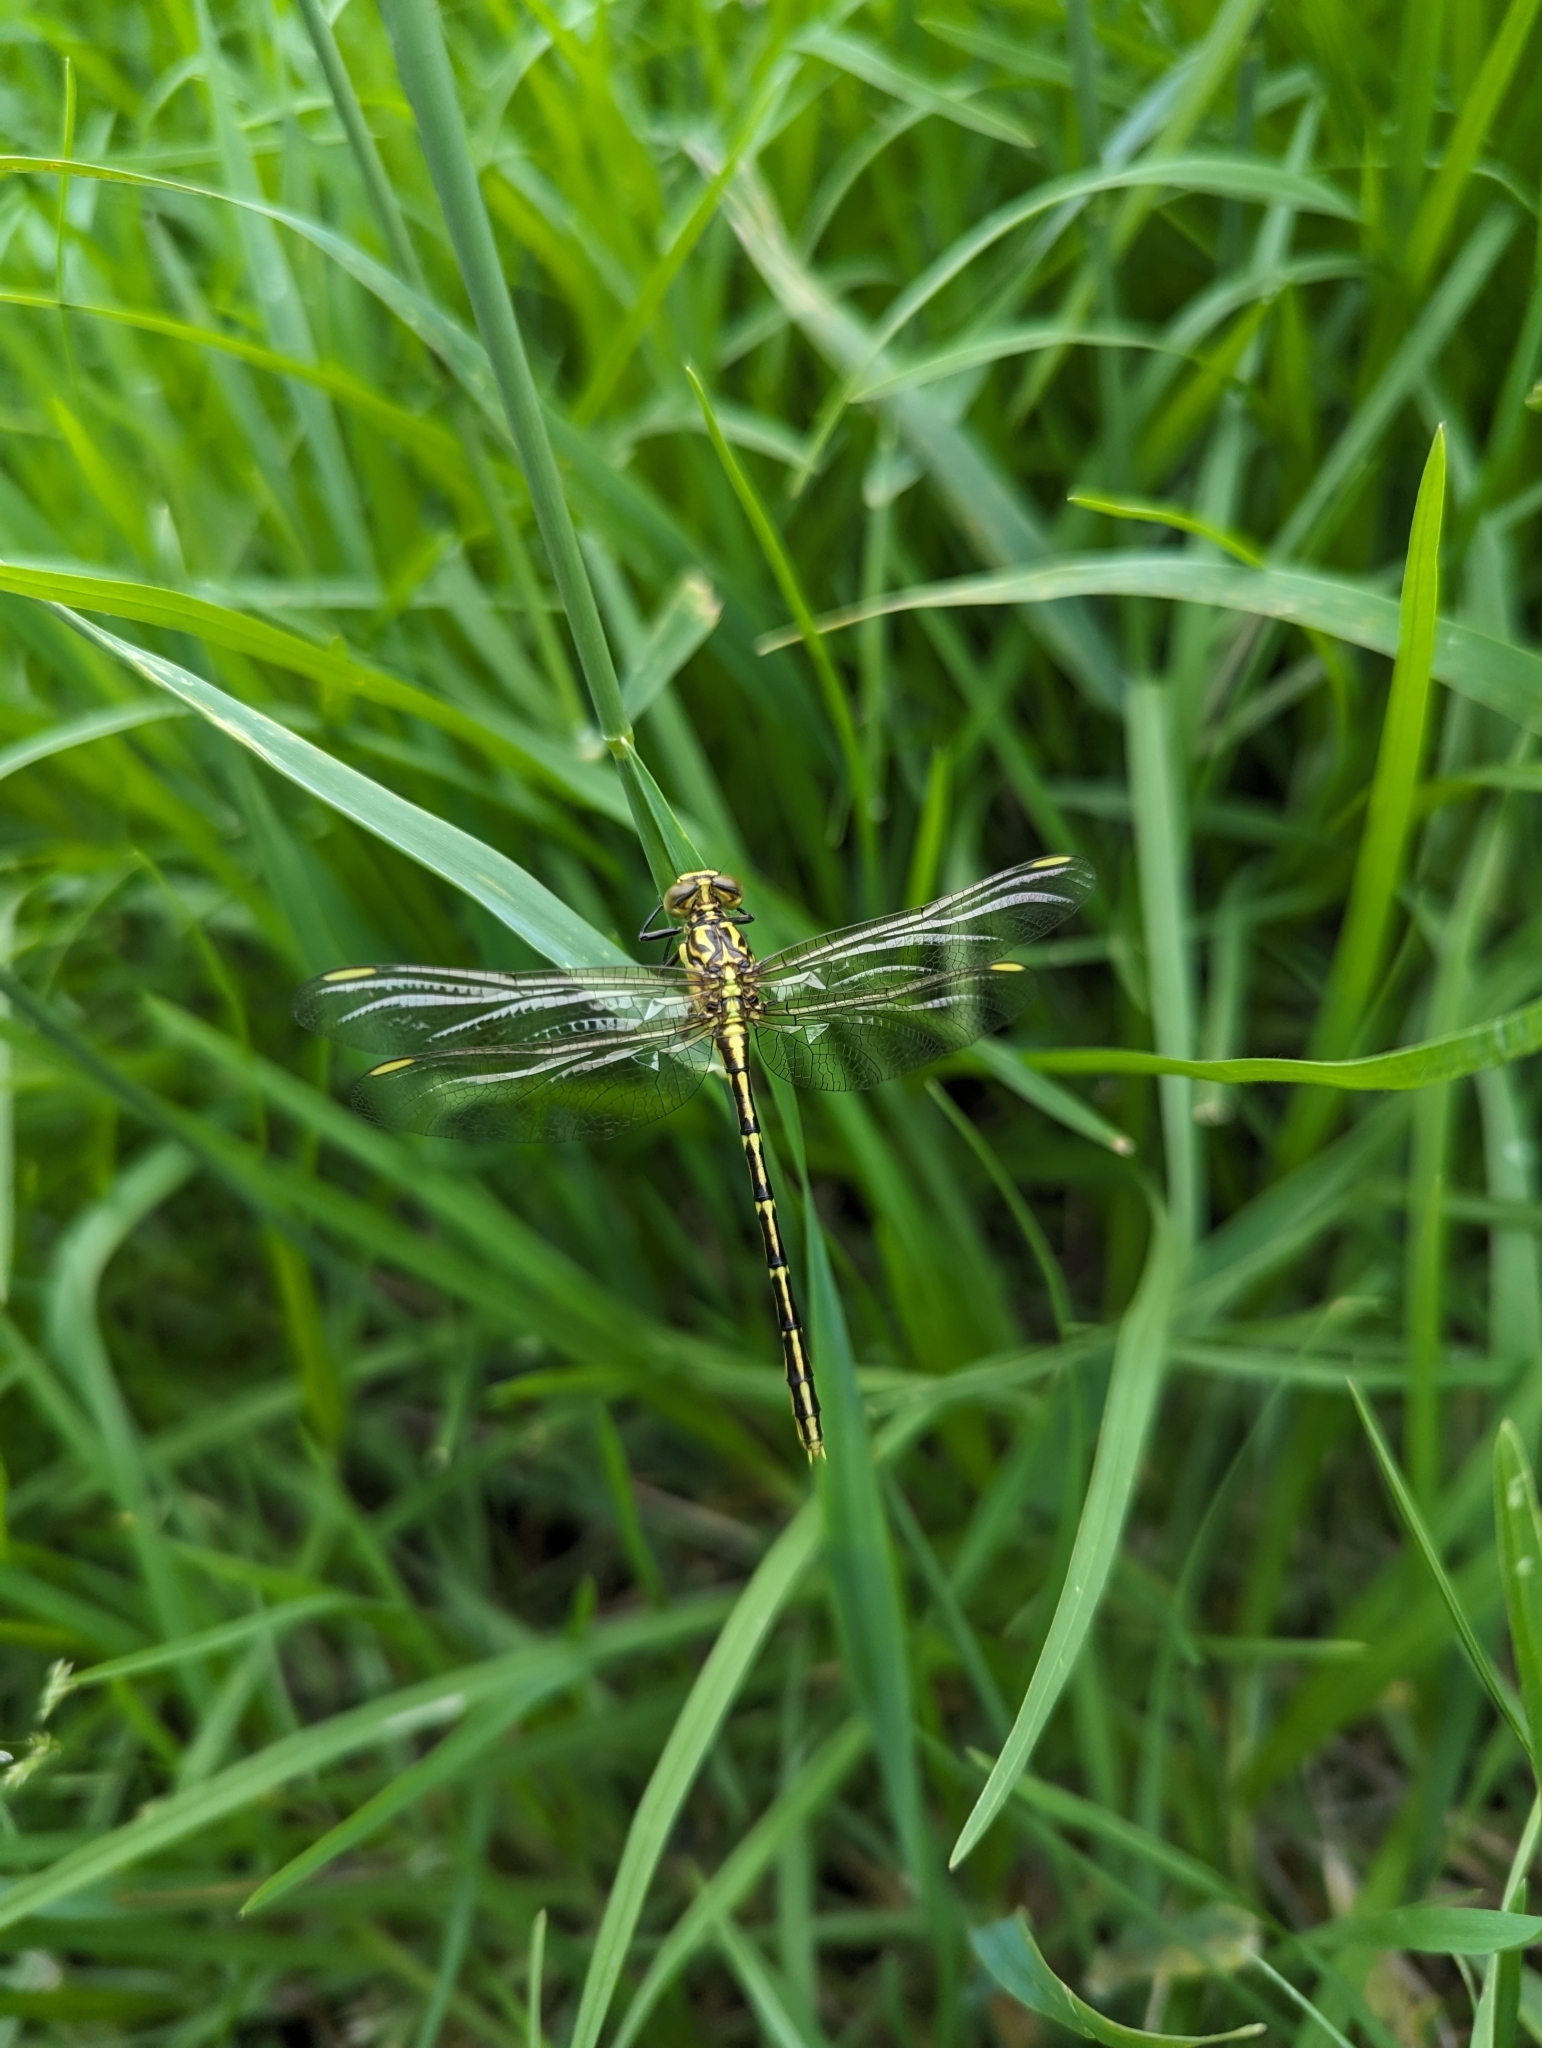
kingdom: Animalia
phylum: Arthropoda
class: Insecta
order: Odonata
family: Gomphidae
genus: Austrogomphus
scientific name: Austrogomphus guerini
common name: Yellow-striped hunter
